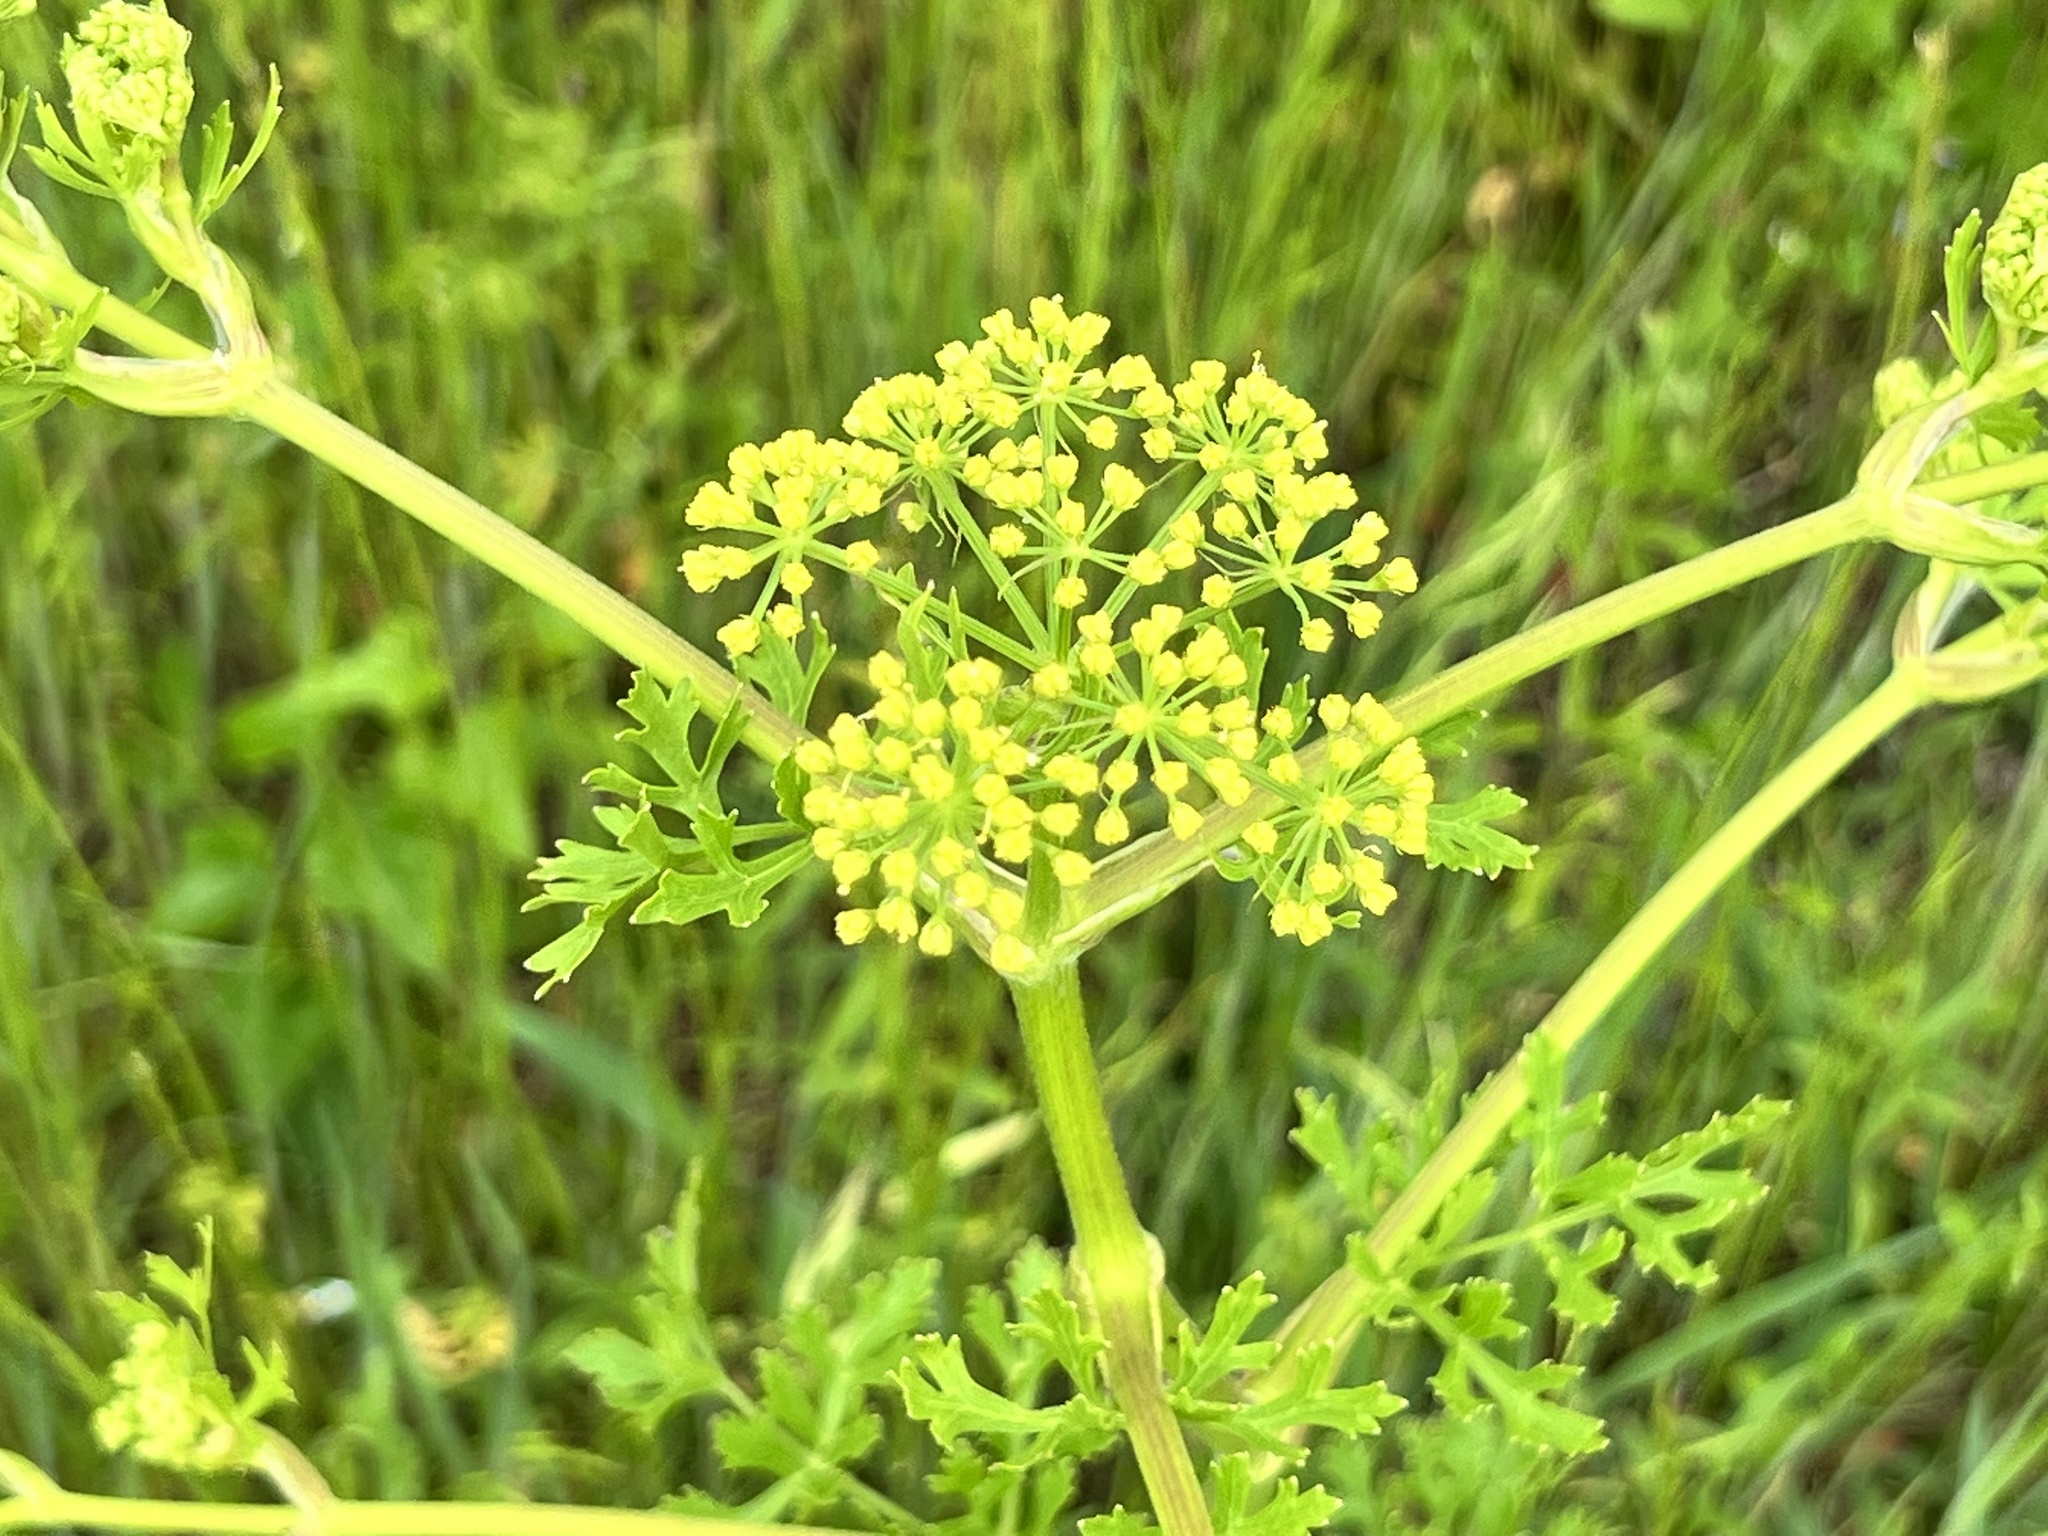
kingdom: Plantae
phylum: Tracheophyta
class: Magnoliopsida
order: Apiales
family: Apiaceae
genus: Polytaenia
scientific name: Polytaenia texana
